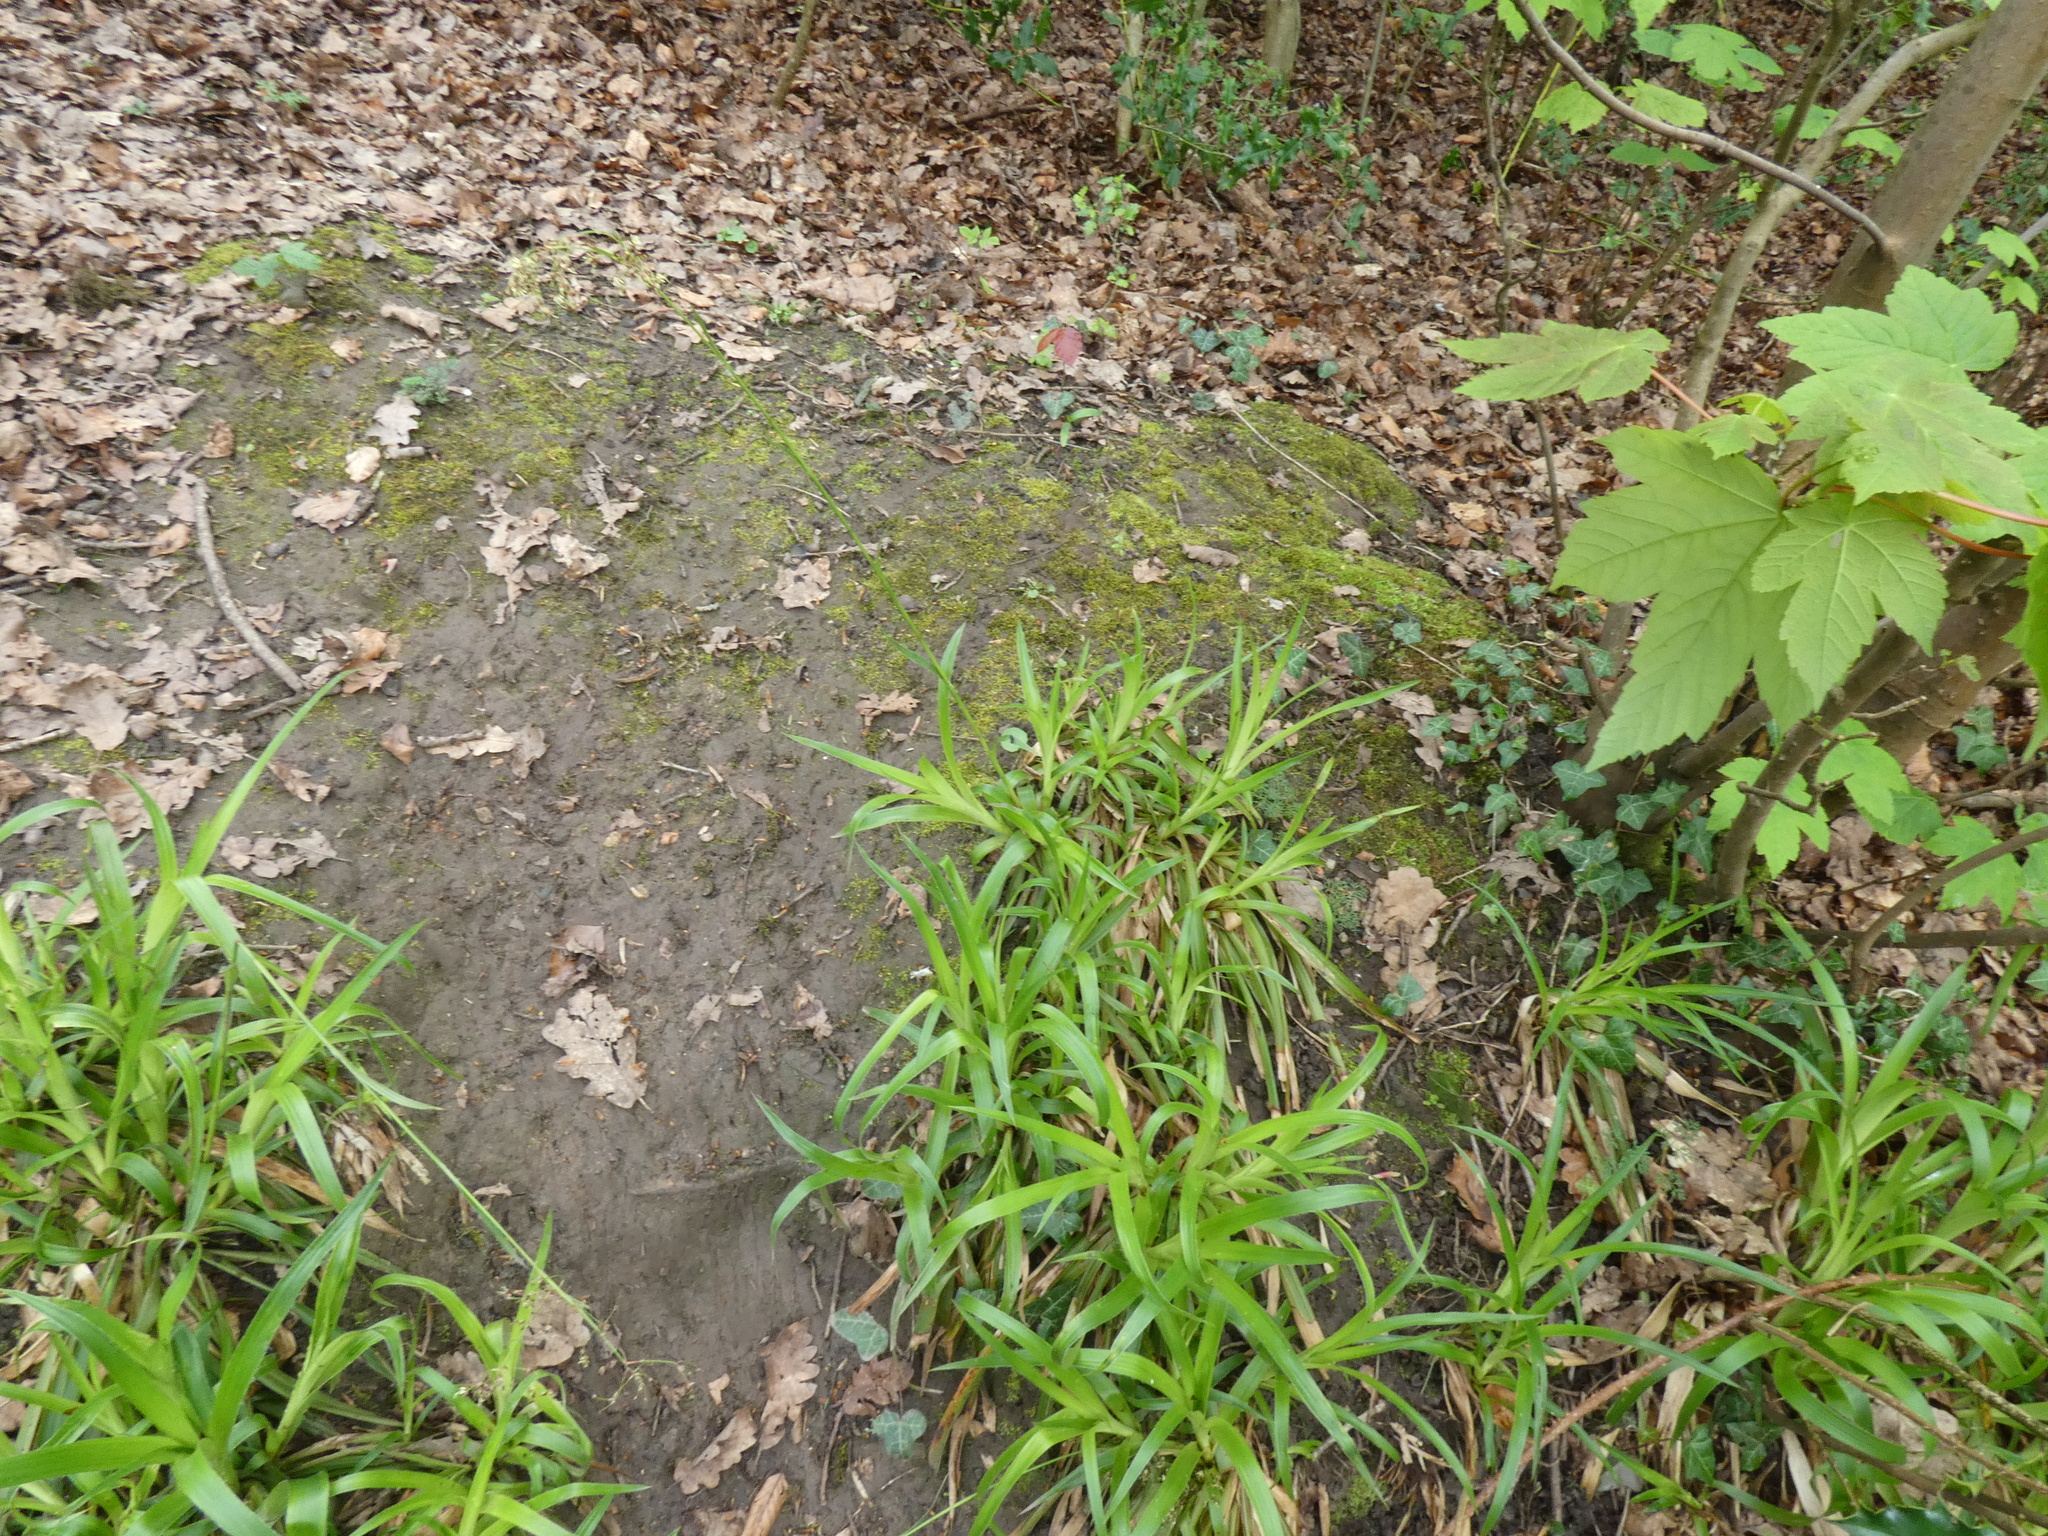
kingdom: Plantae
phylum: Tracheophyta
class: Liliopsida
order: Poales
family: Juncaceae
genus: Luzula
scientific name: Luzula sylvatica
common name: Great wood-rush
